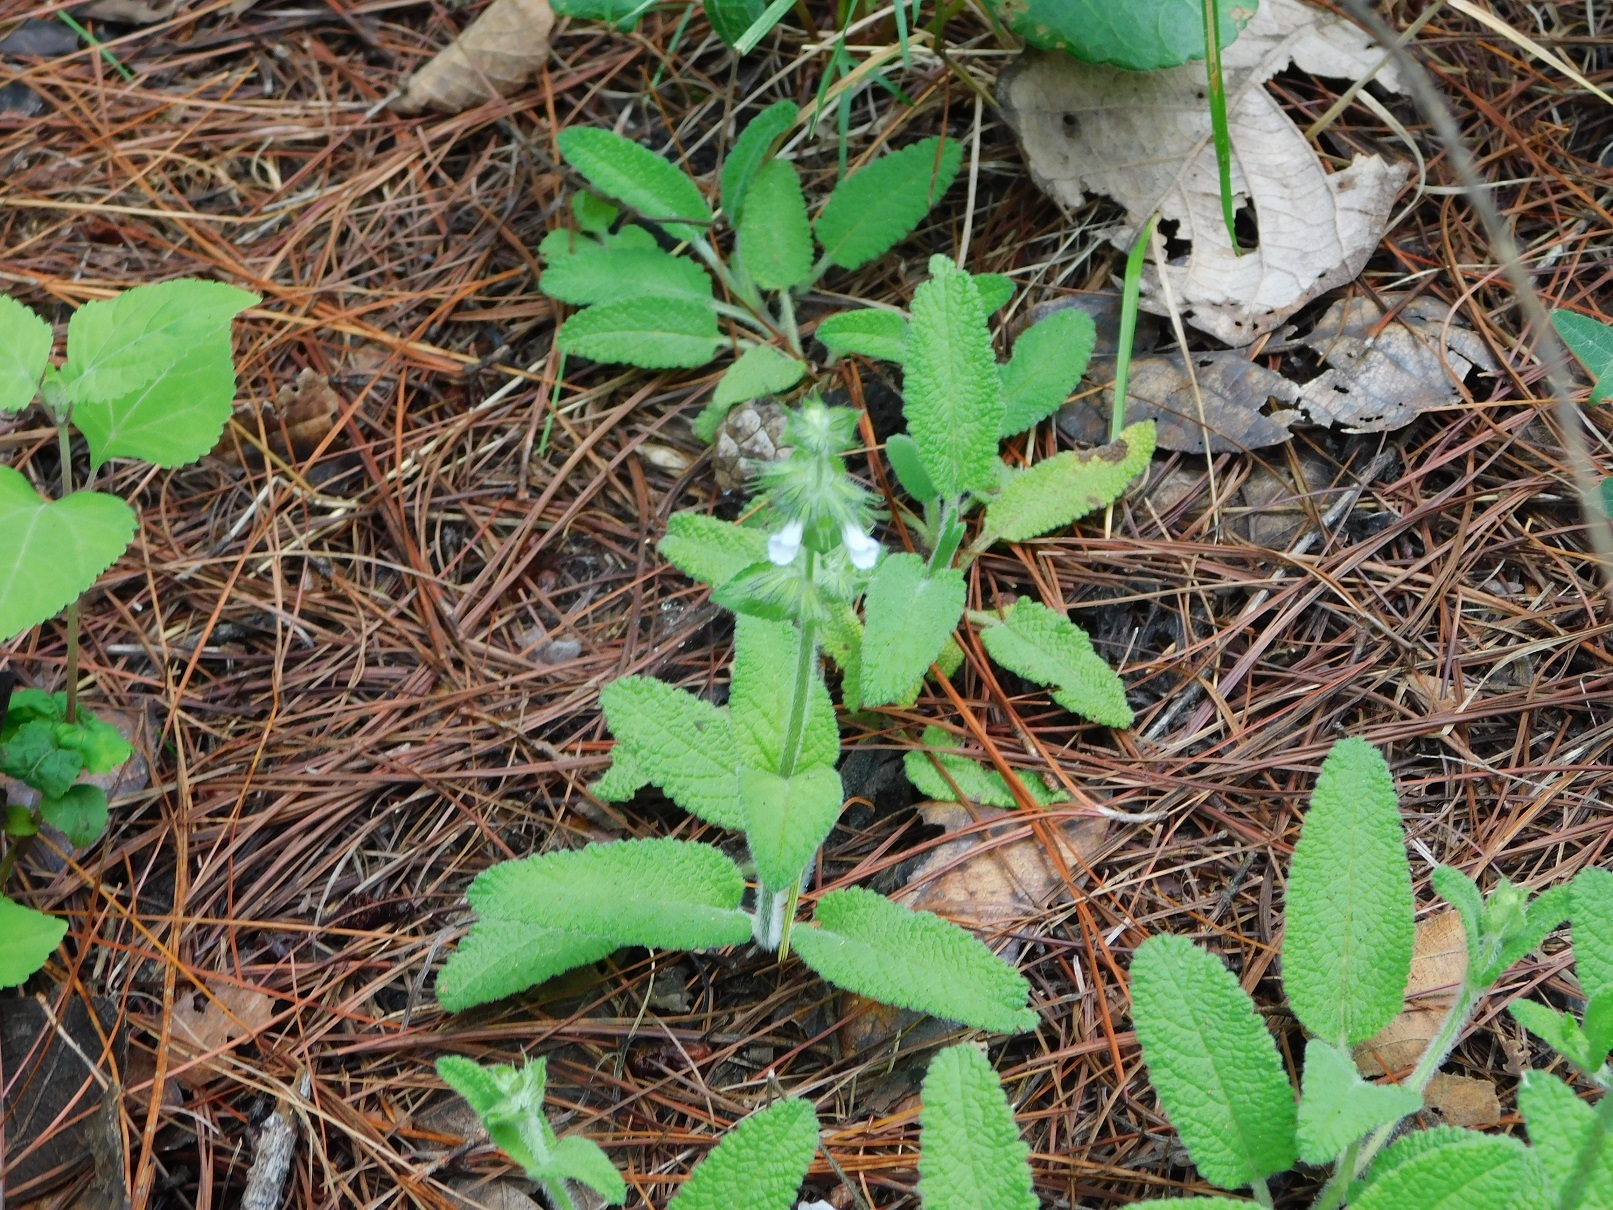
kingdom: Plantae
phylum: Tracheophyta
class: Magnoliopsida
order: Lamiales
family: Lamiaceae
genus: Lepechinia
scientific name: Lepechinia schiedeana
